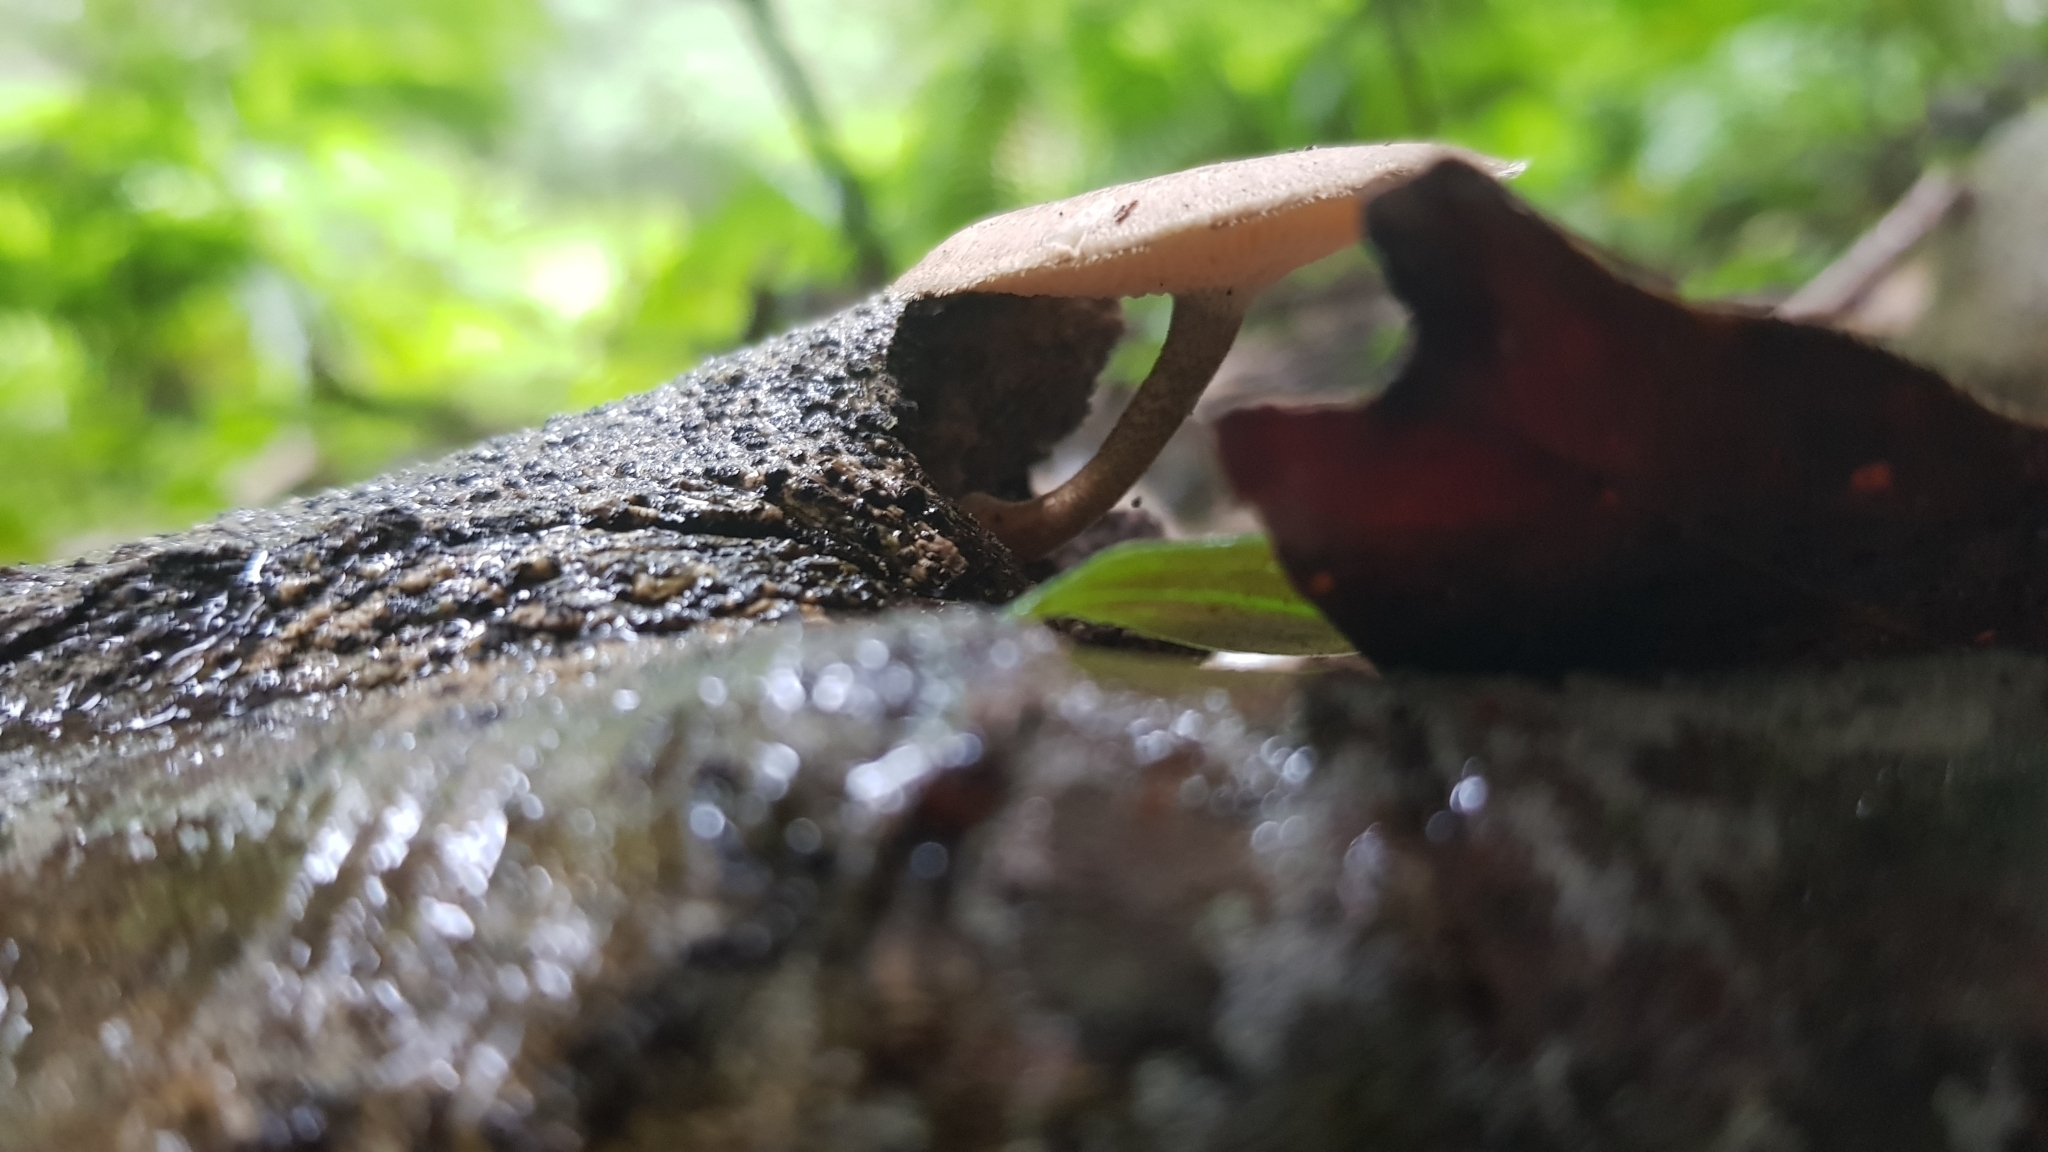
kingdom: Fungi
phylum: Basidiomycota
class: Agaricomycetes
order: Polyporales
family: Polyporaceae
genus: Lentinus
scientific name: Lentinus arcularius
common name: Spring polypore
